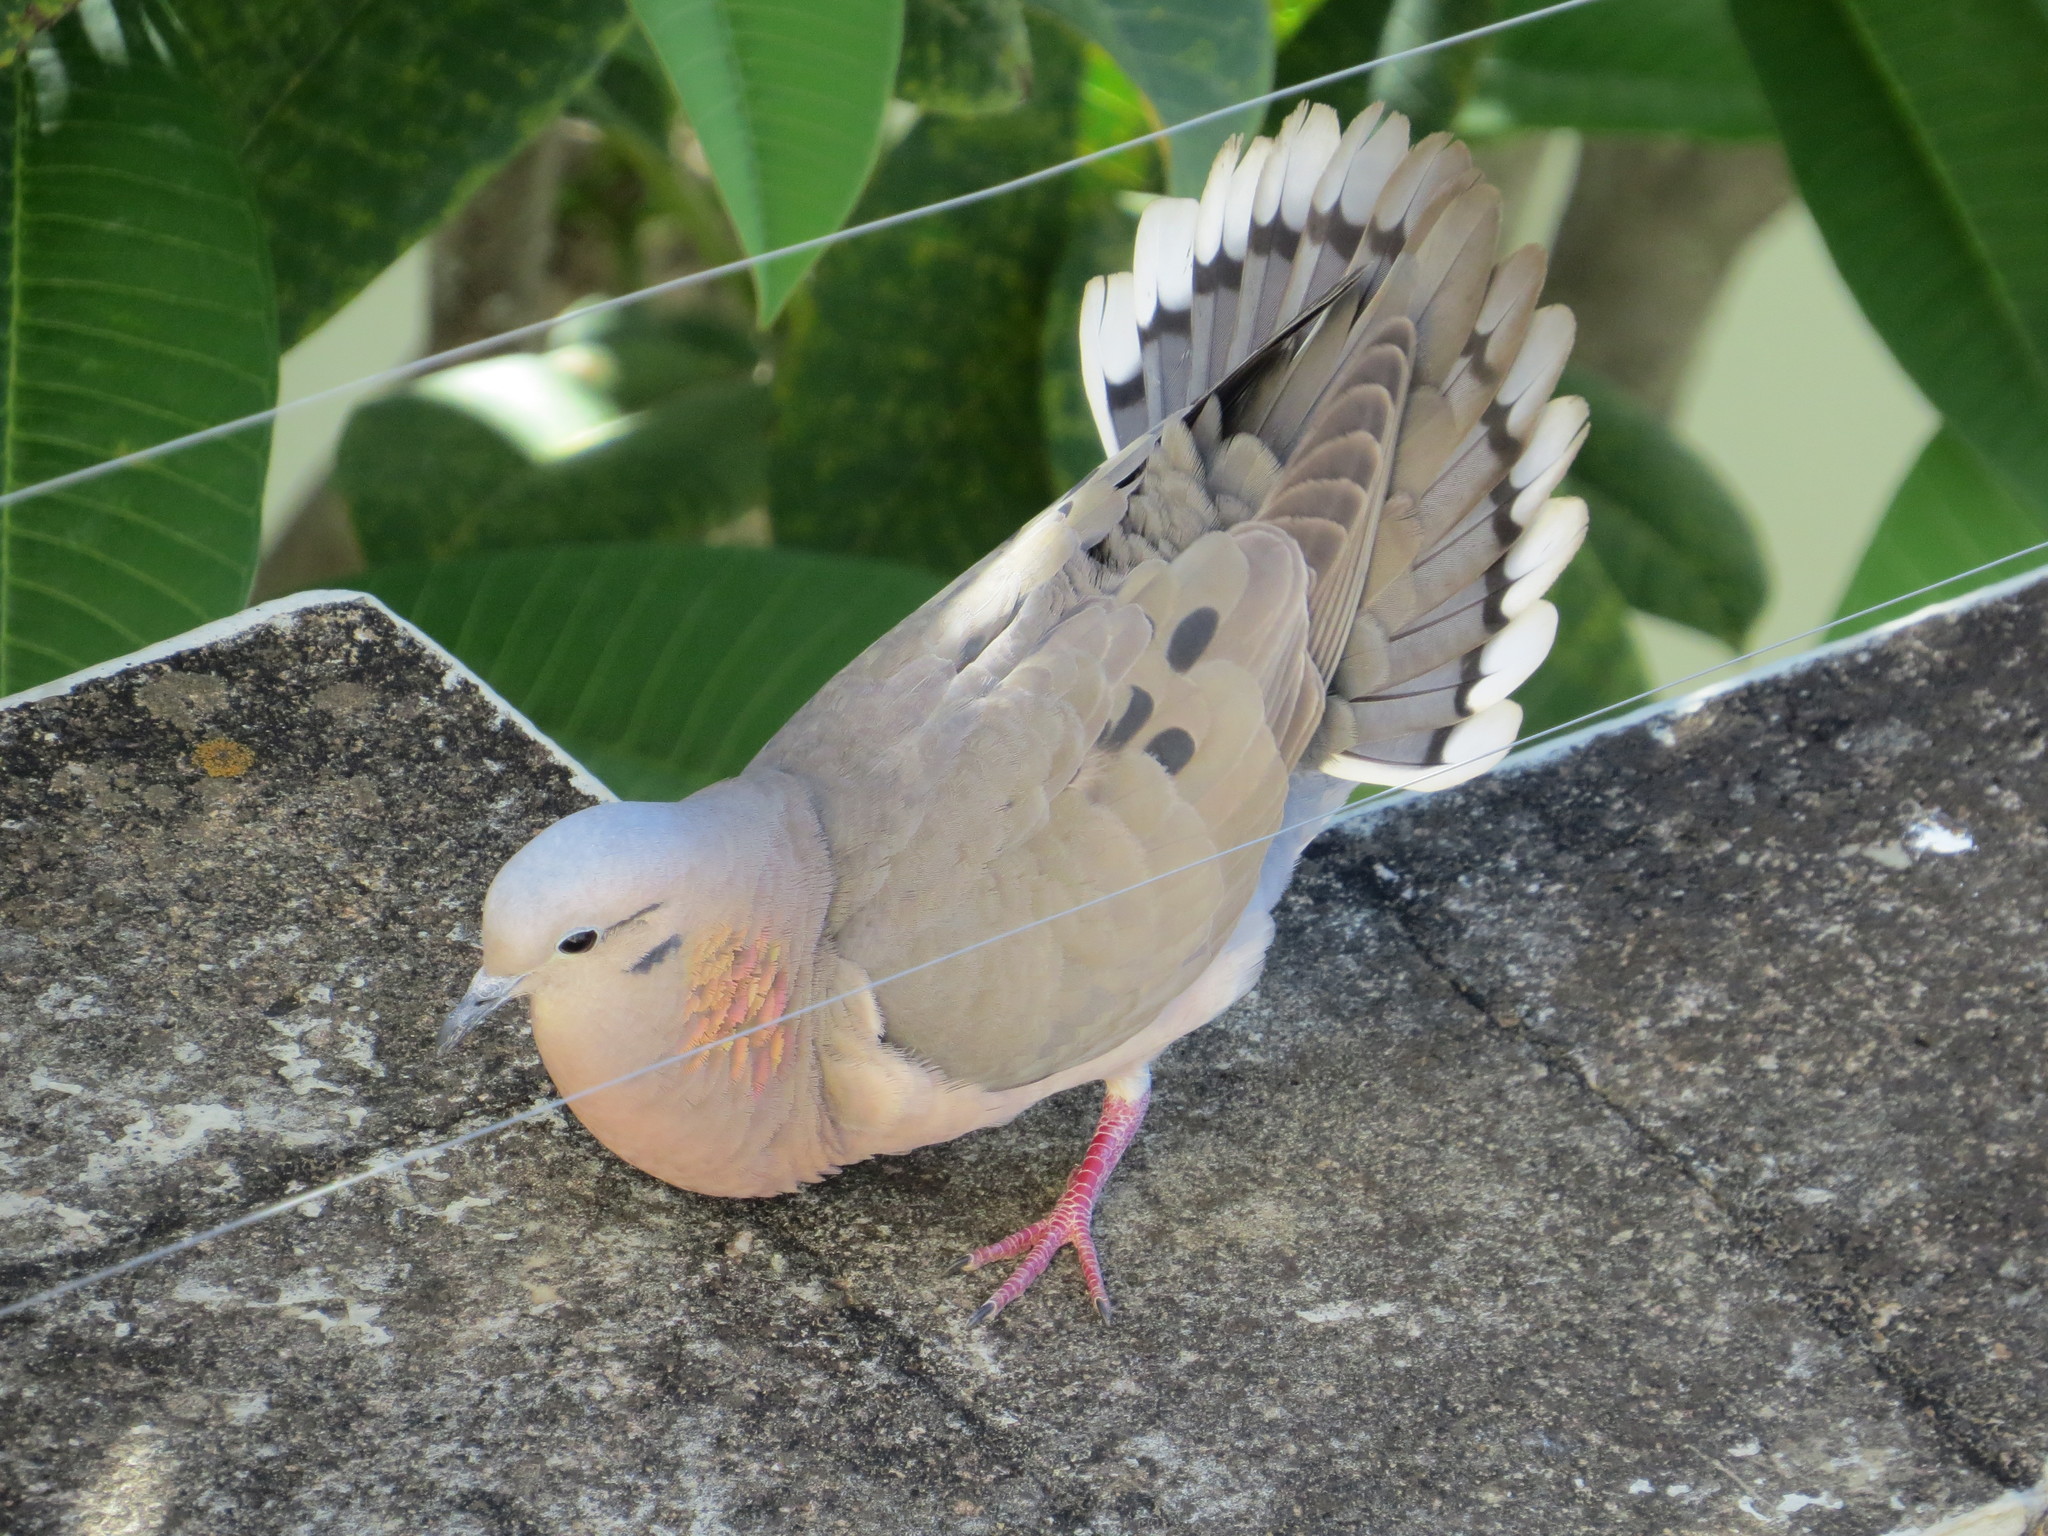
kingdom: Animalia
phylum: Chordata
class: Aves
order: Columbiformes
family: Columbidae
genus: Zenaida
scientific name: Zenaida auriculata
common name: Eared dove
